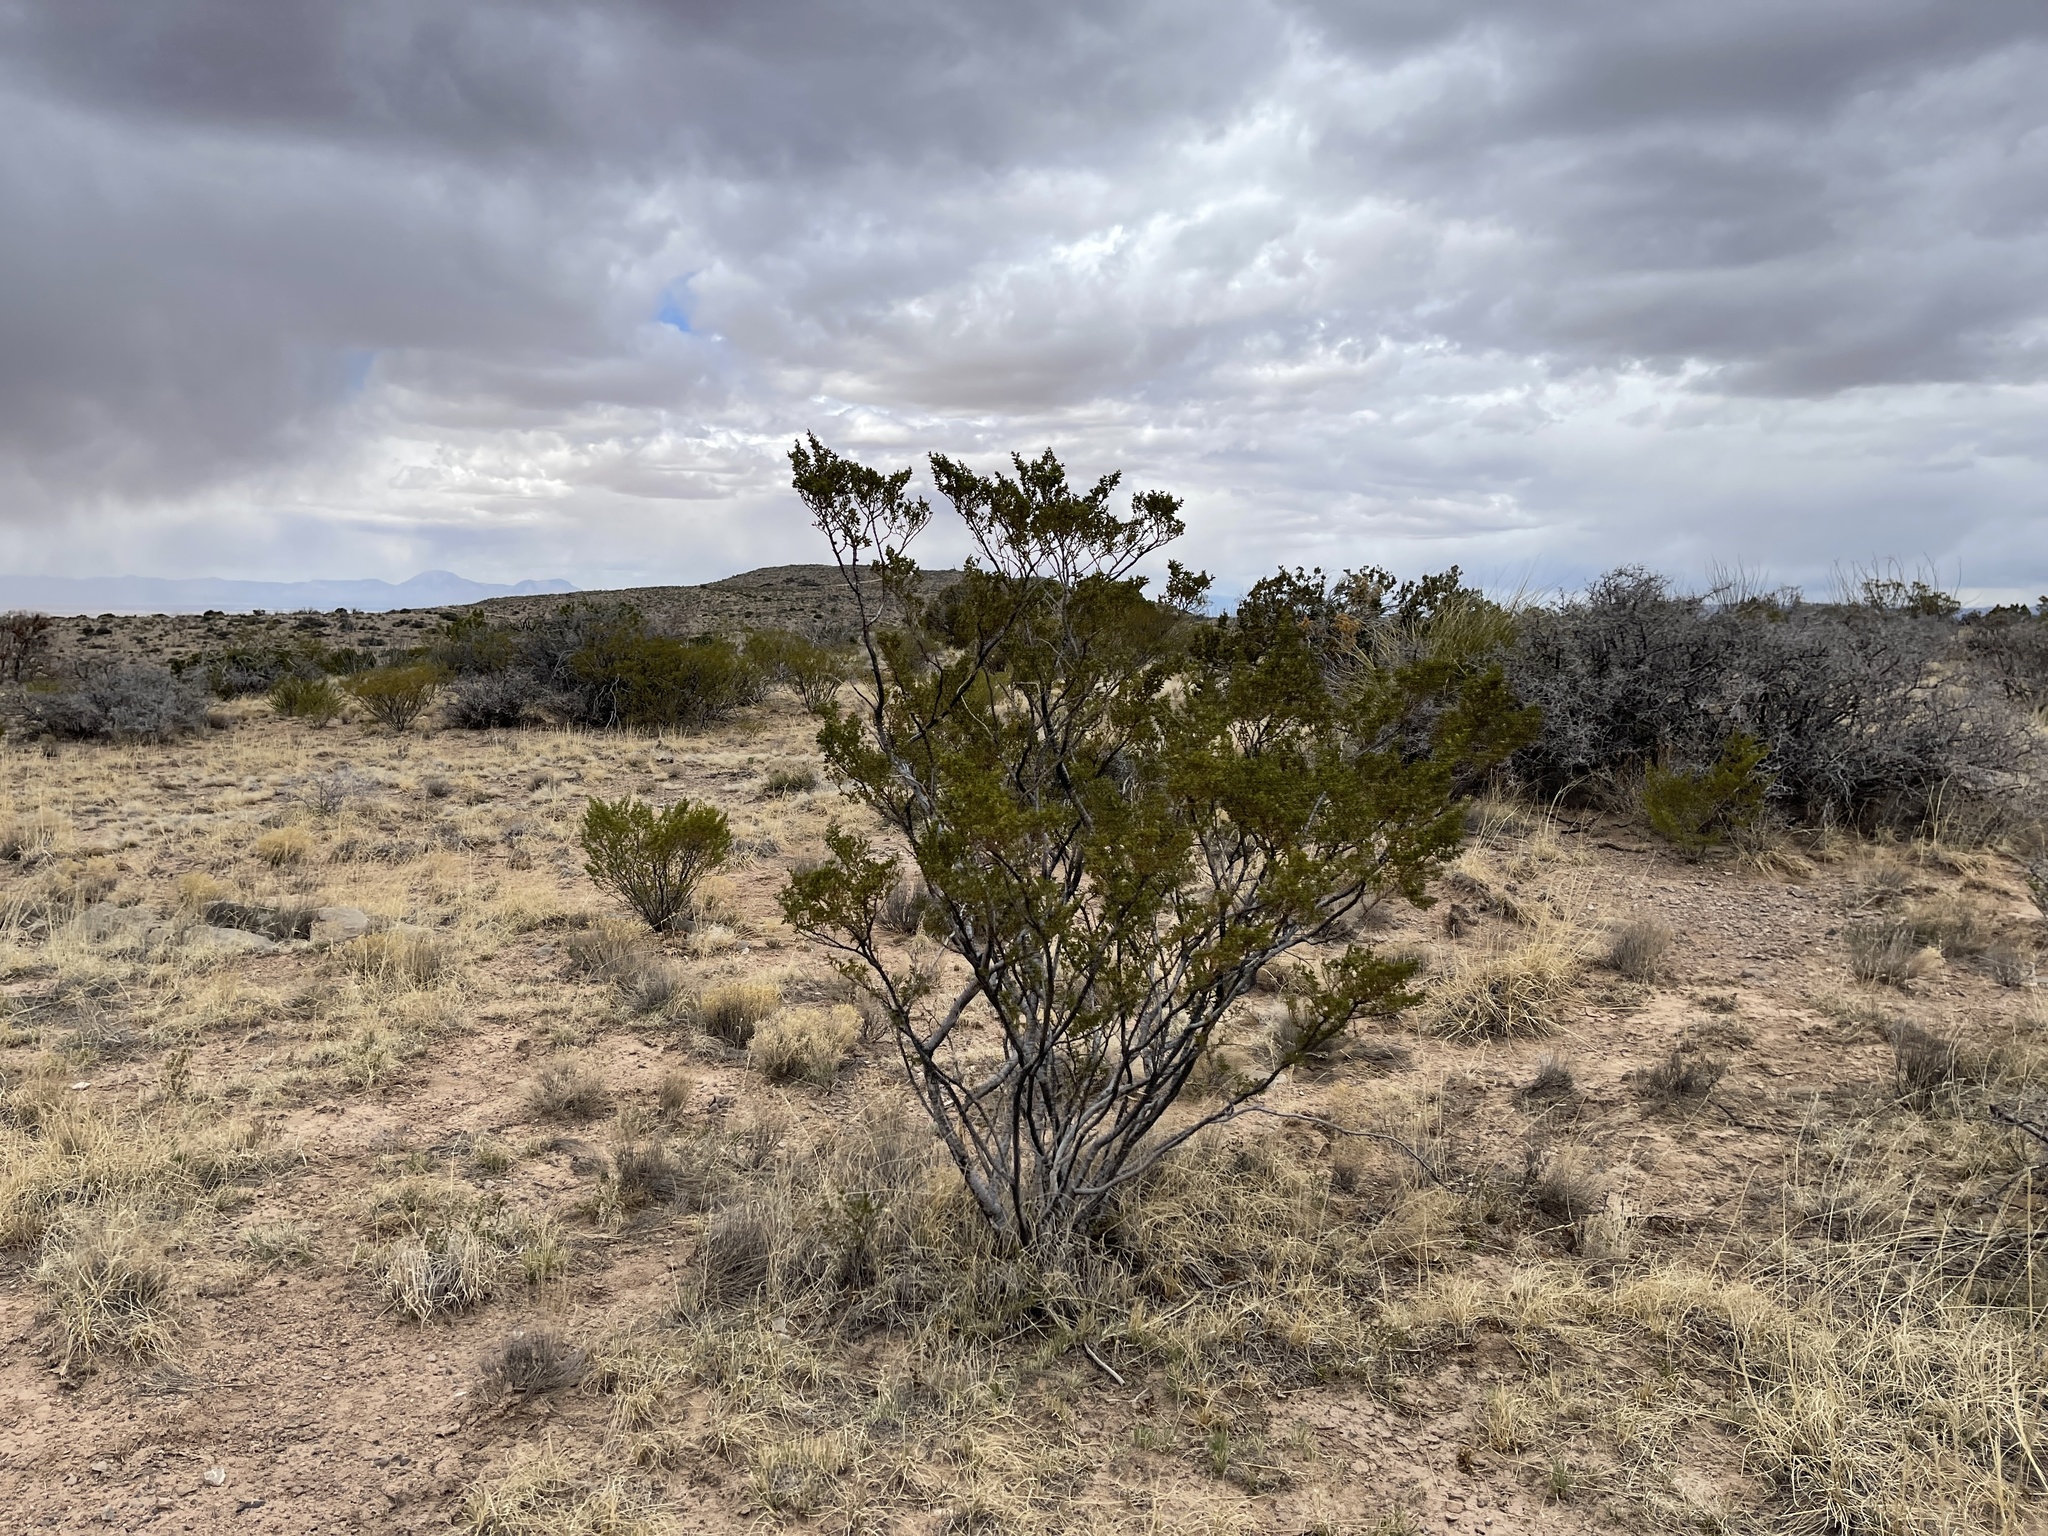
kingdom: Plantae
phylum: Tracheophyta
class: Magnoliopsida
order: Zygophyllales
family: Zygophyllaceae
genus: Larrea
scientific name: Larrea tridentata
